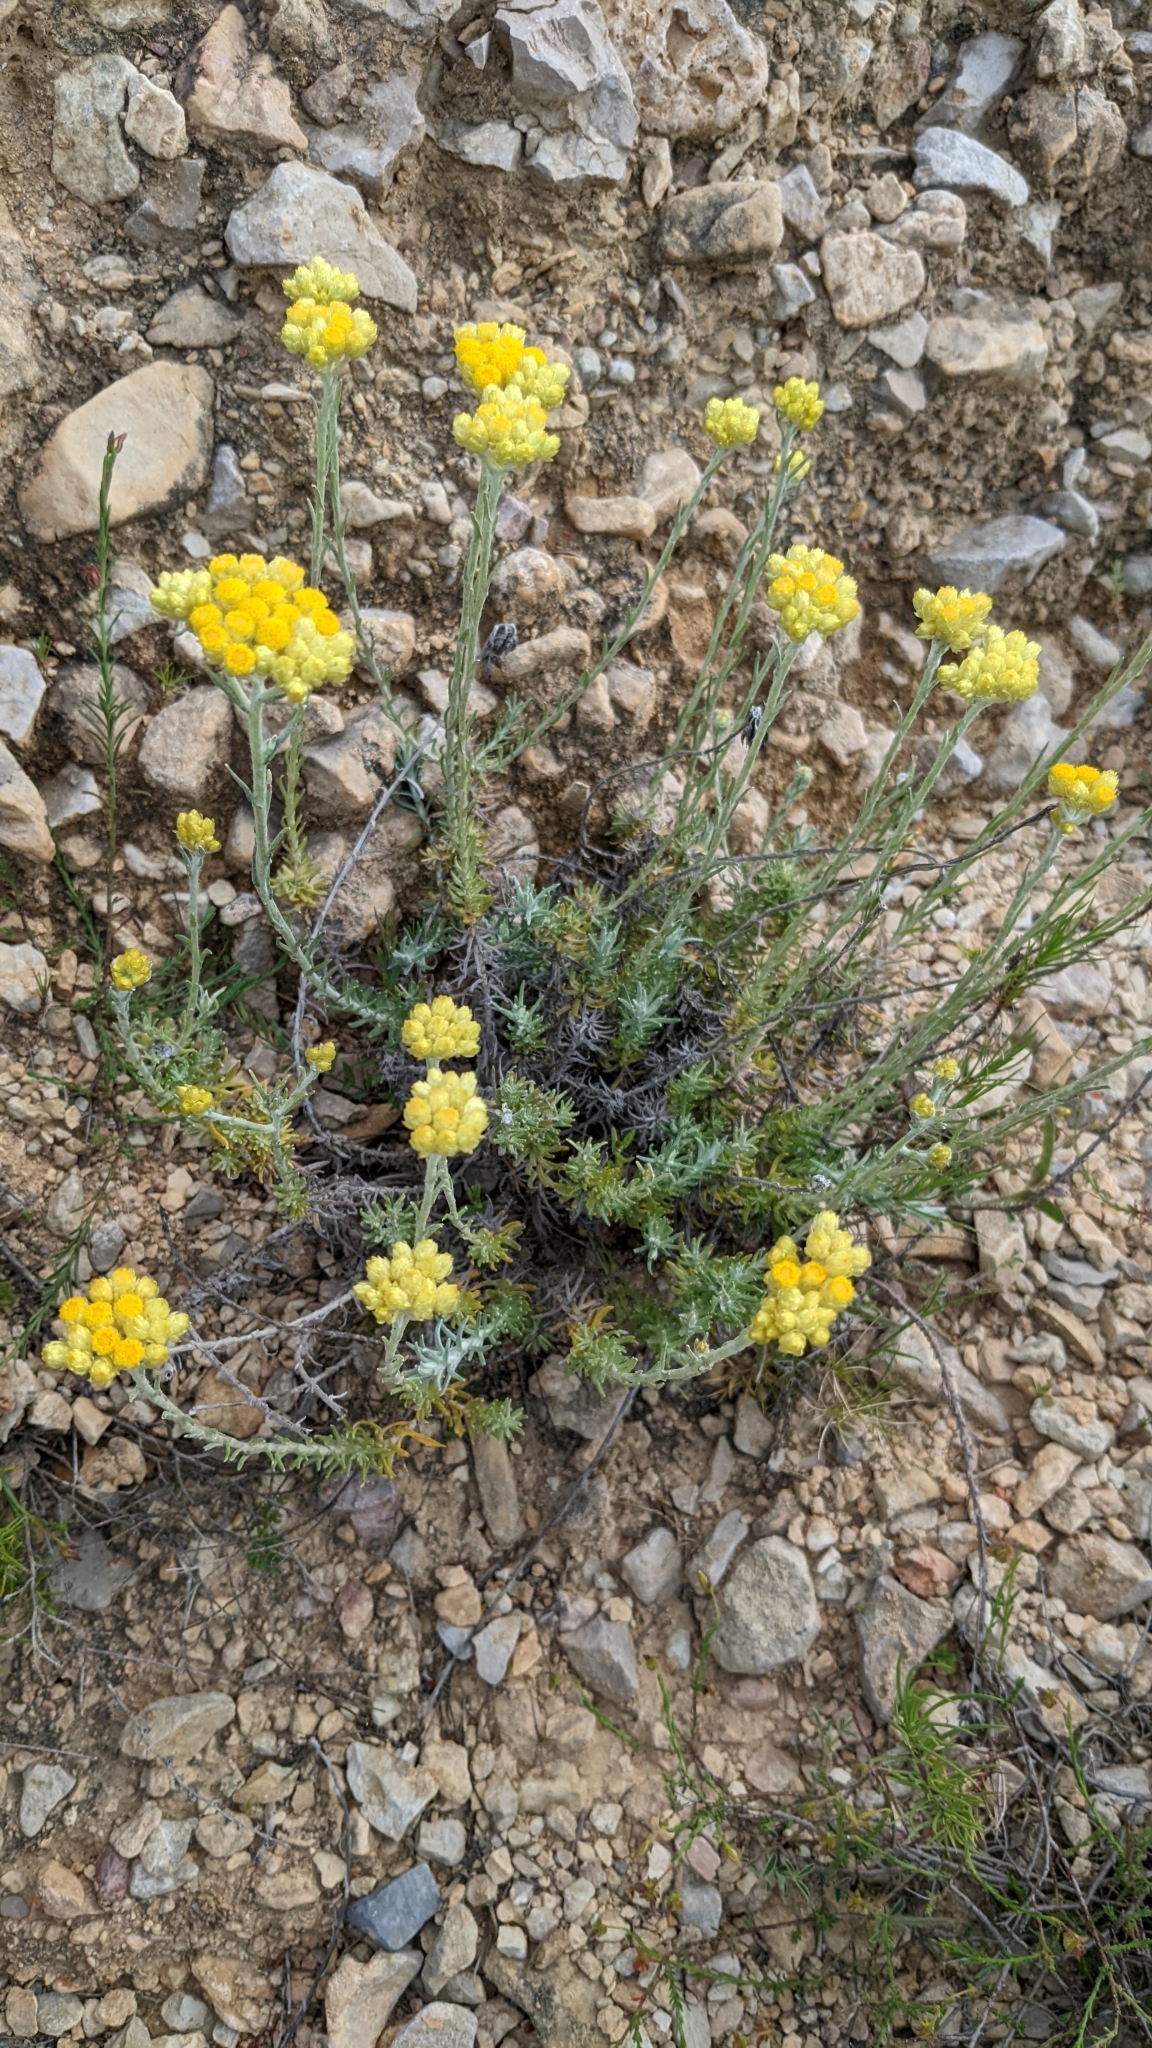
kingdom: Plantae
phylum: Tracheophyta
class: Magnoliopsida
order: Asterales
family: Asteraceae
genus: Helichrysum
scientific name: Helichrysum stoechas
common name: Goldilocks
